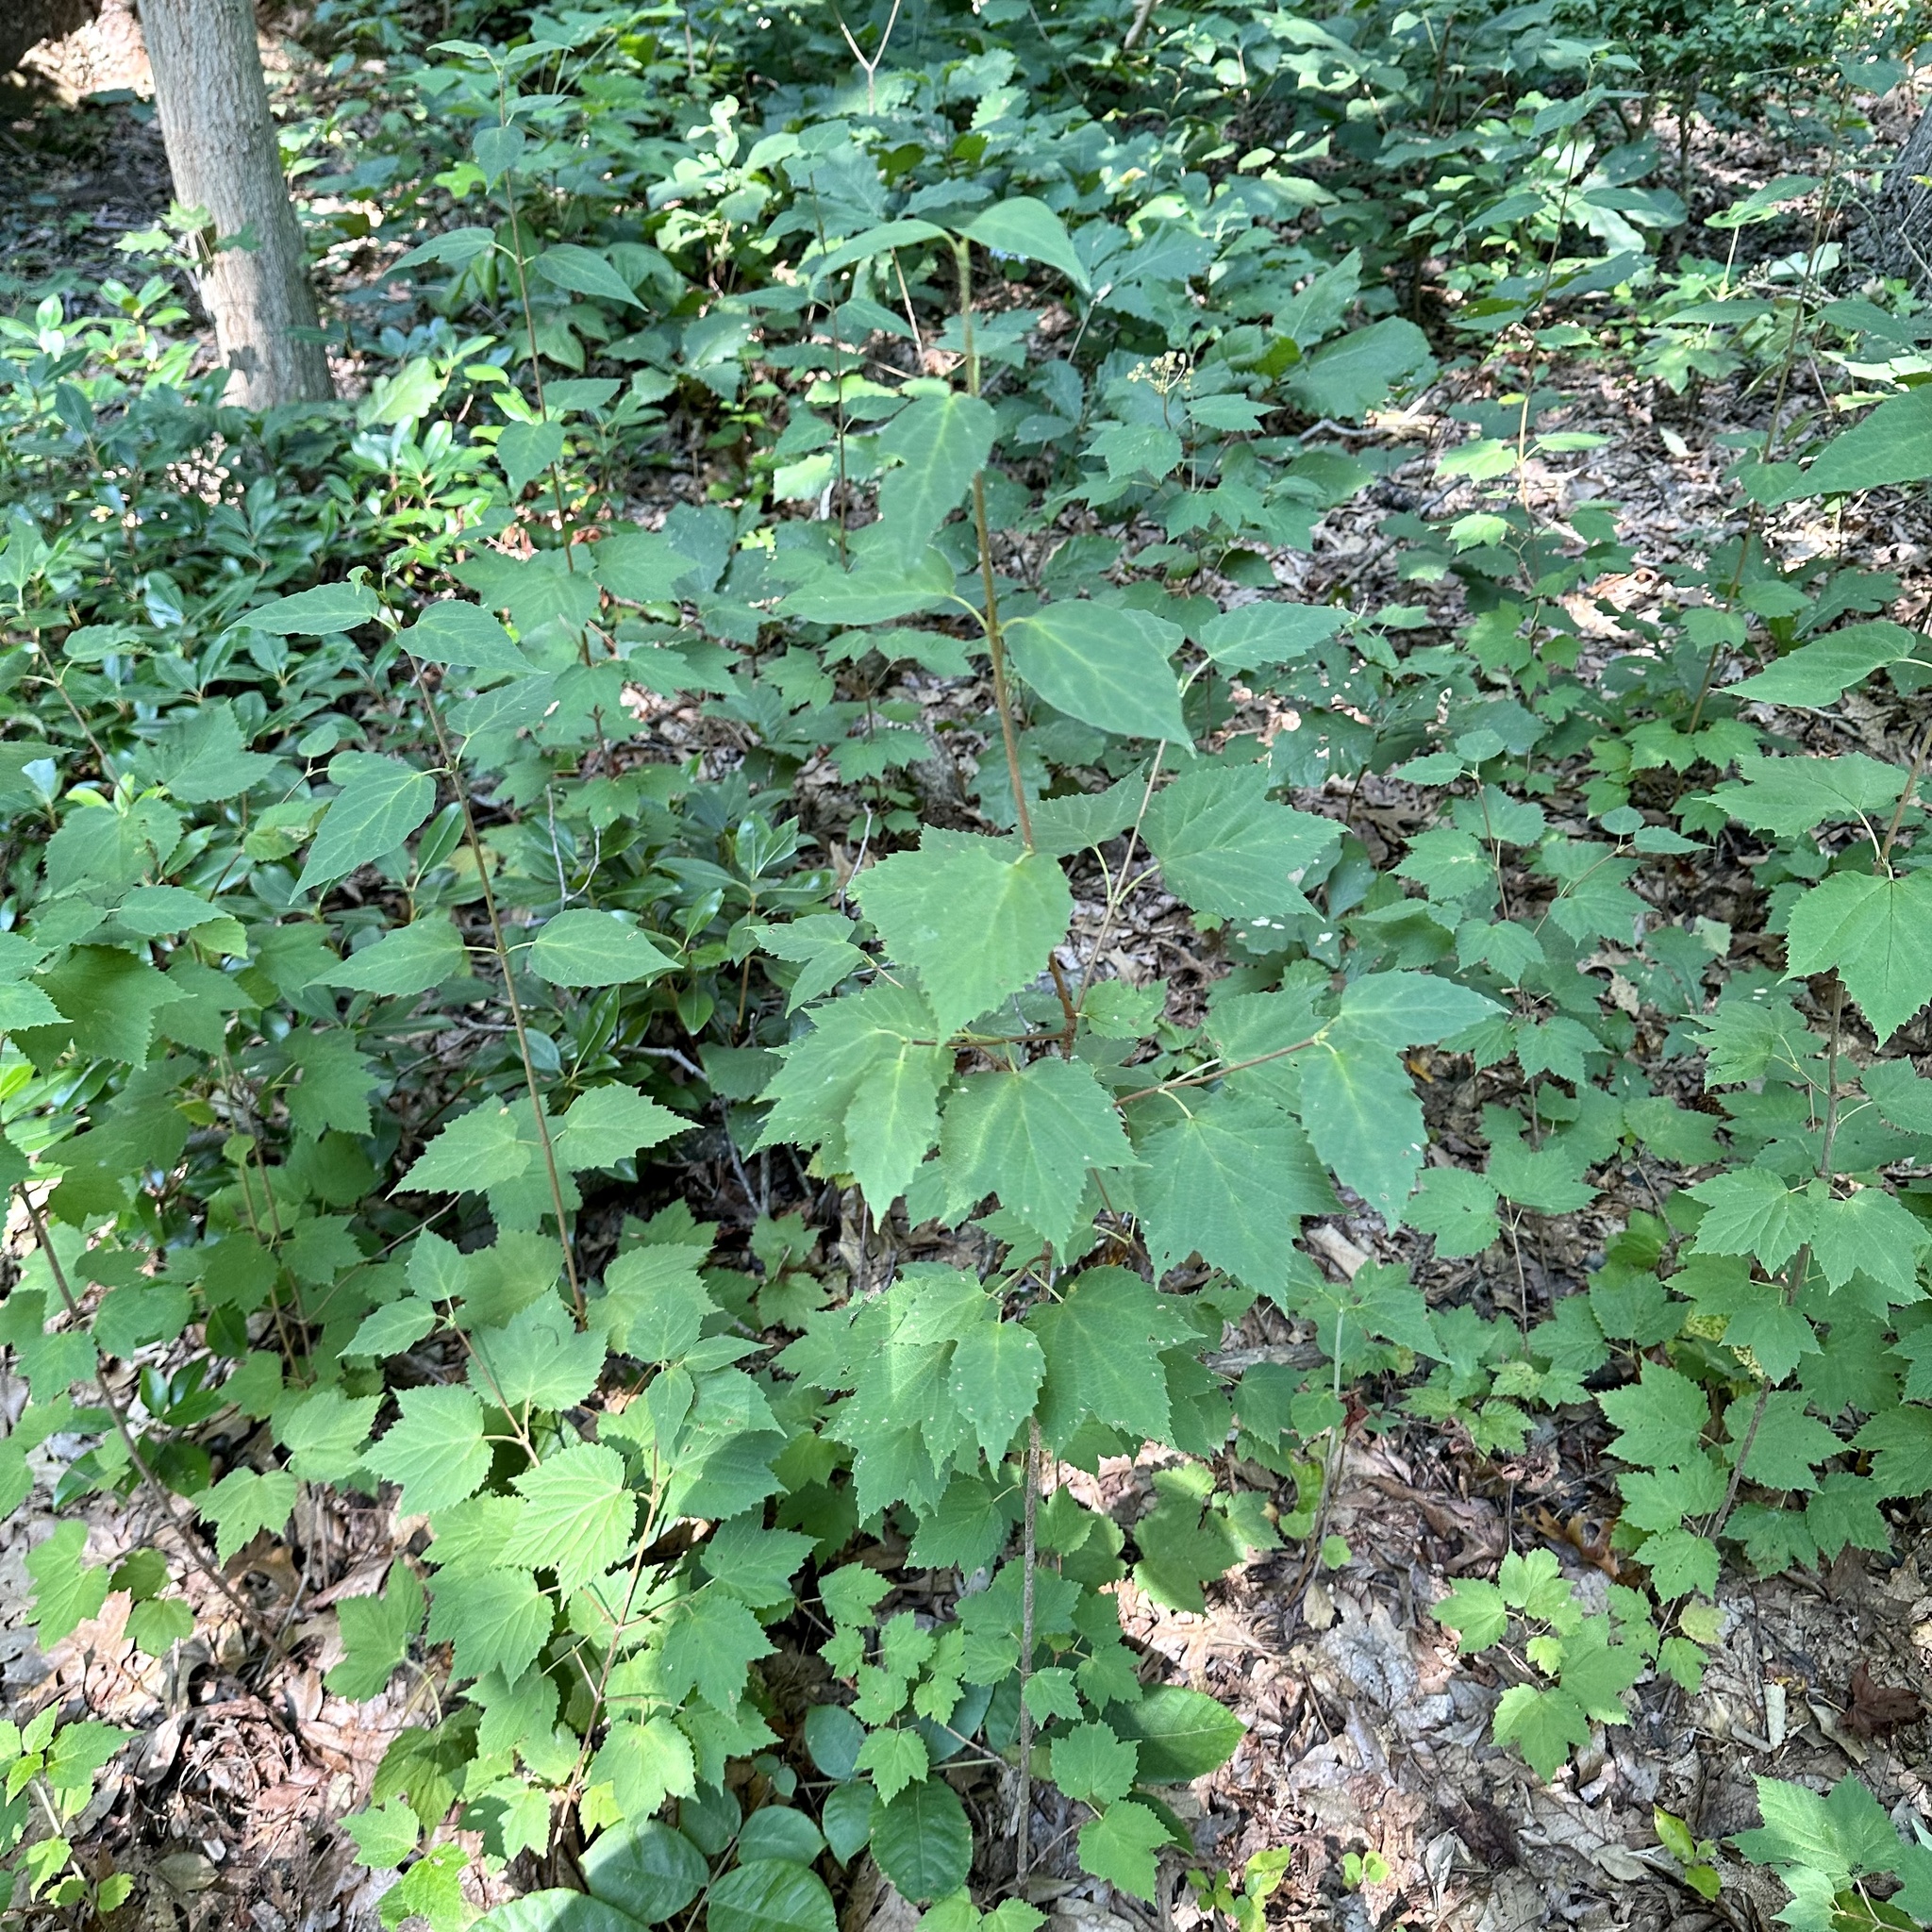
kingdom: Plantae
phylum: Tracheophyta
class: Magnoliopsida
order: Dipsacales
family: Viburnaceae
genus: Viburnum
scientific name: Viburnum acerifolium
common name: Dockmackie
